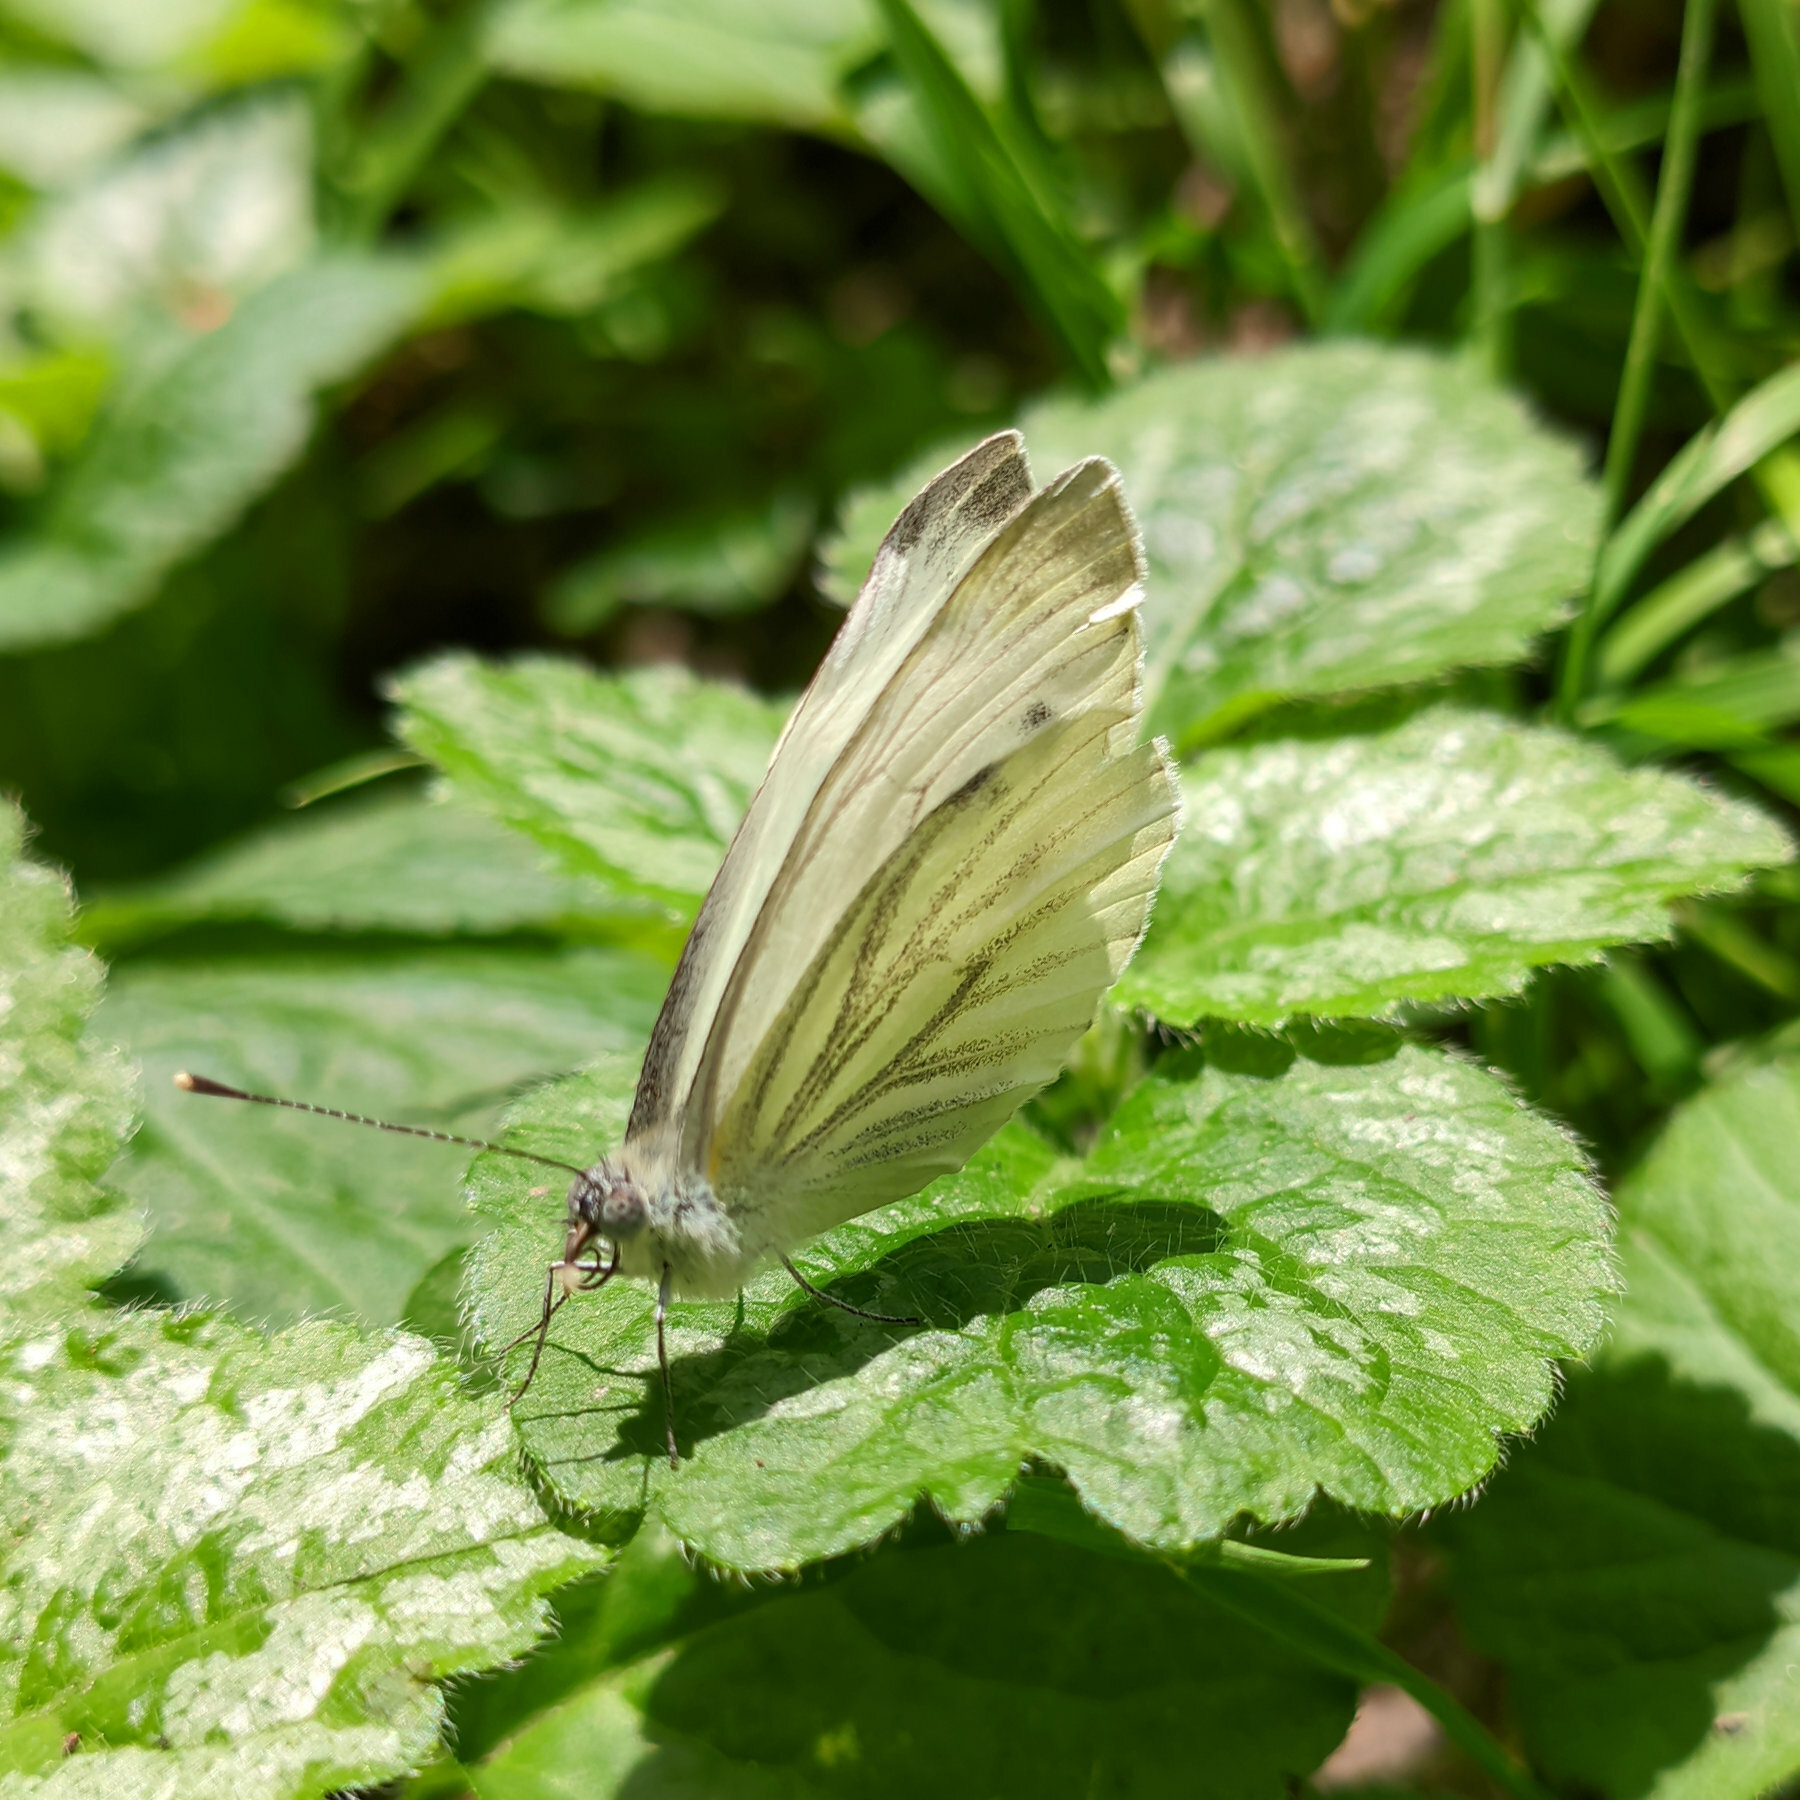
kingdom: Animalia
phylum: Arthropoda
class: Insecta
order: Lepidoptera
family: Pieridae
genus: Pieris
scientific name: Pieris napi
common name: Green-veined white
